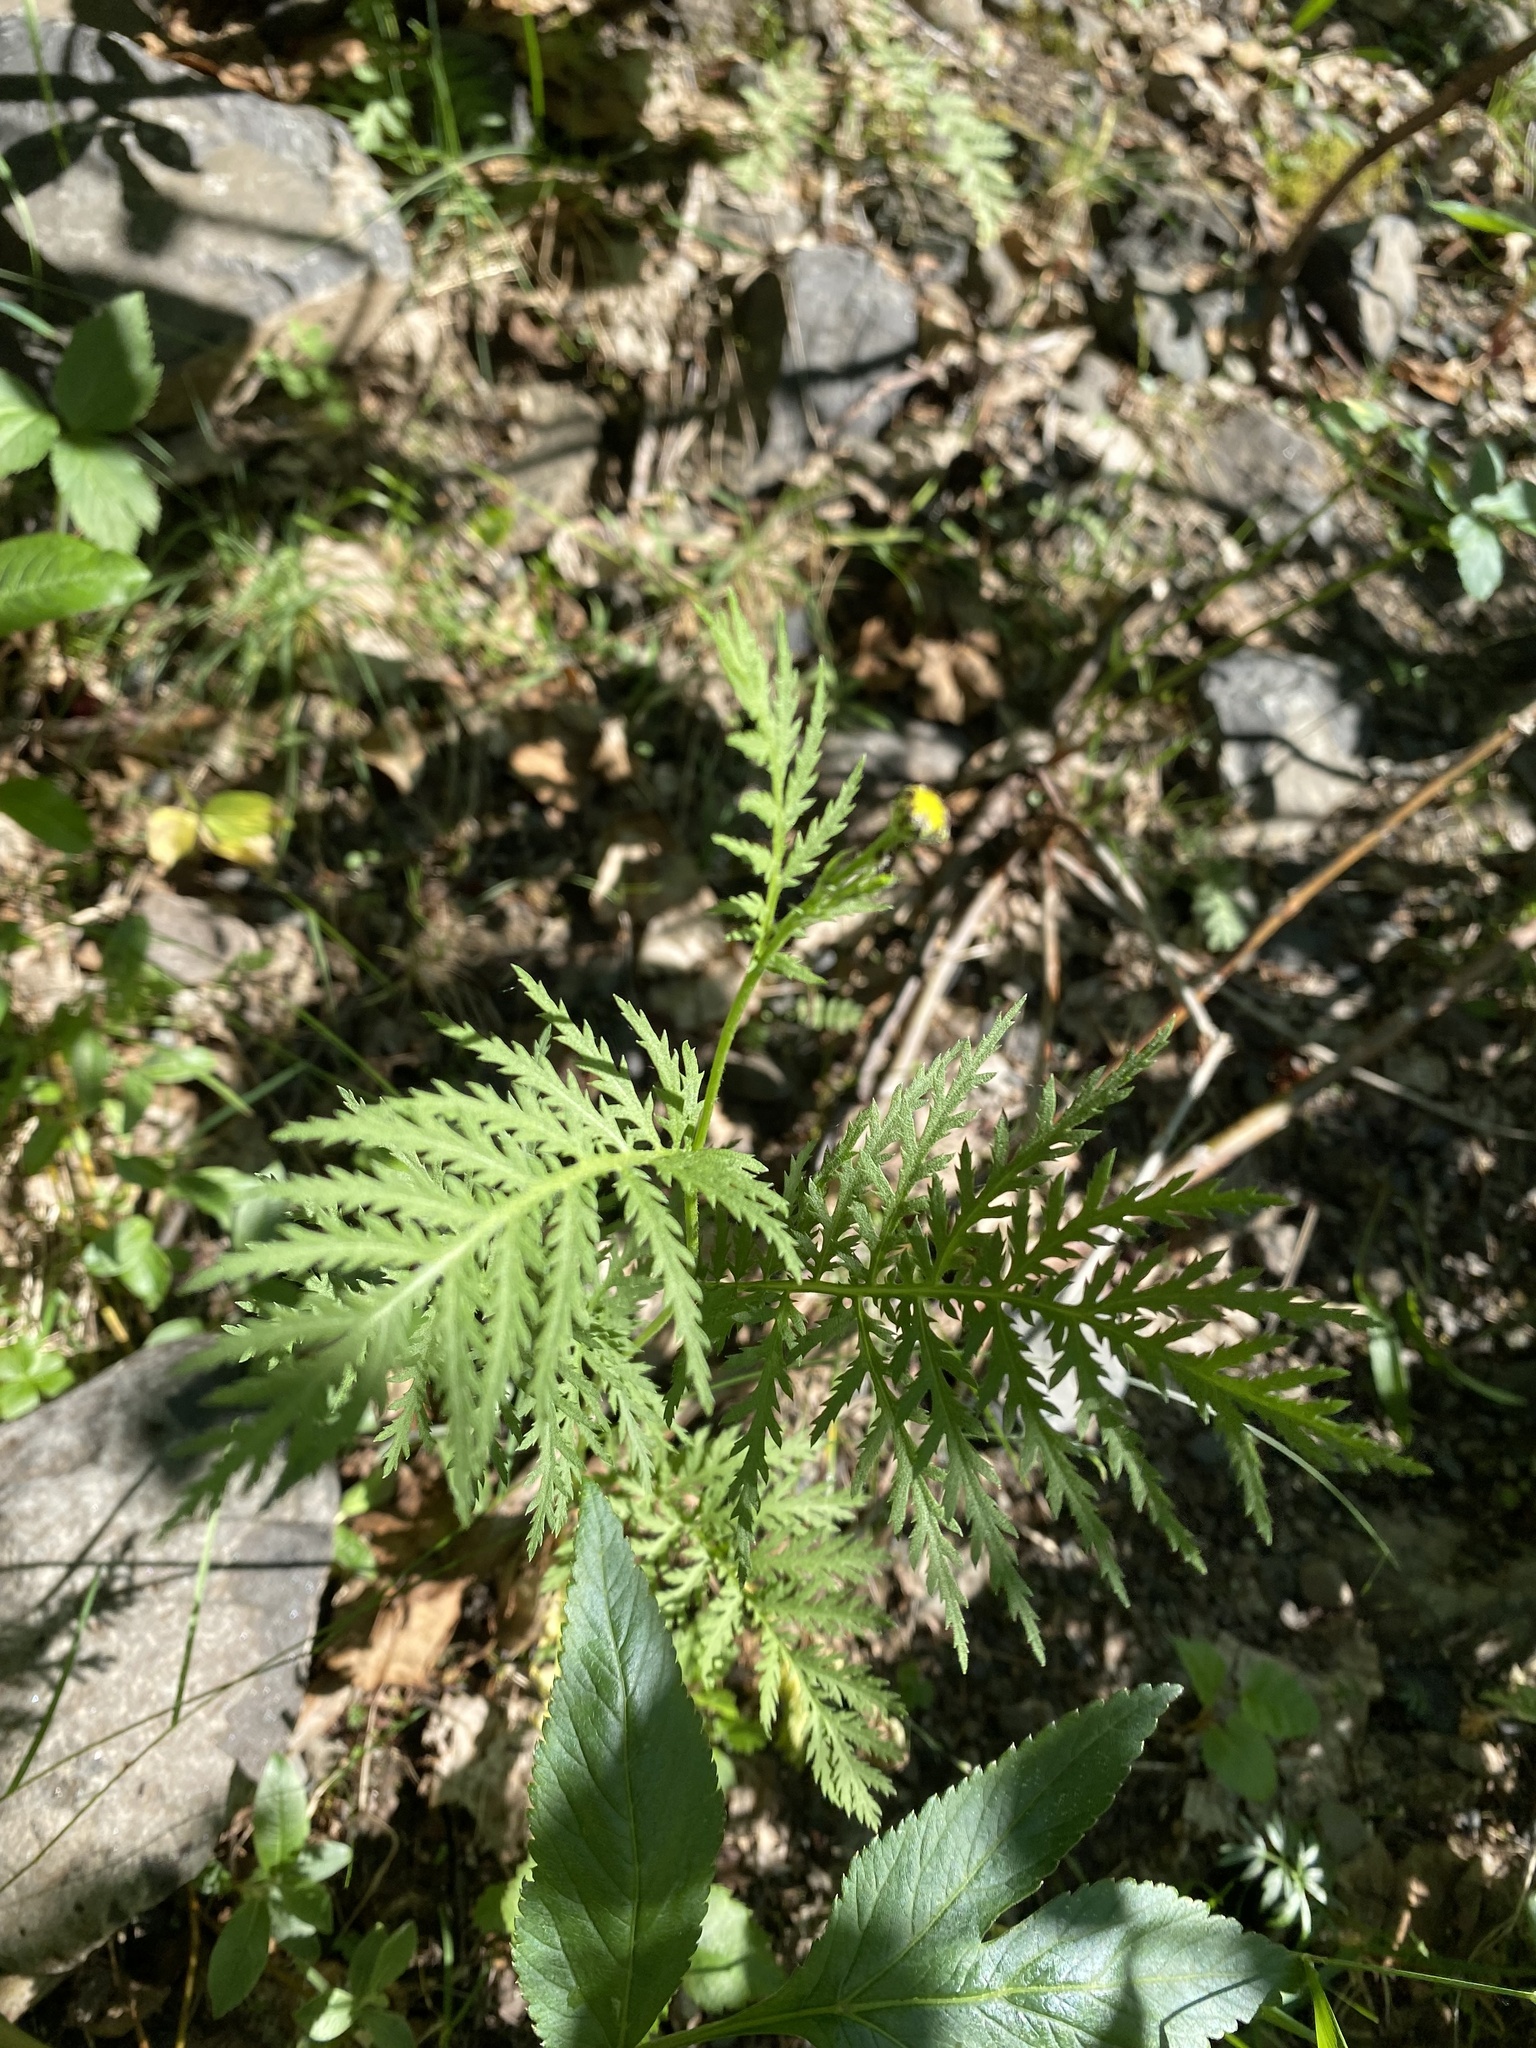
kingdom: Plantae
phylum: Tracheophyta
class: Magnoliopsida
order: Asterales
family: Asteraceae
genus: Tanacetum
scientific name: Tanacetum vulgare
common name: Common tansy
